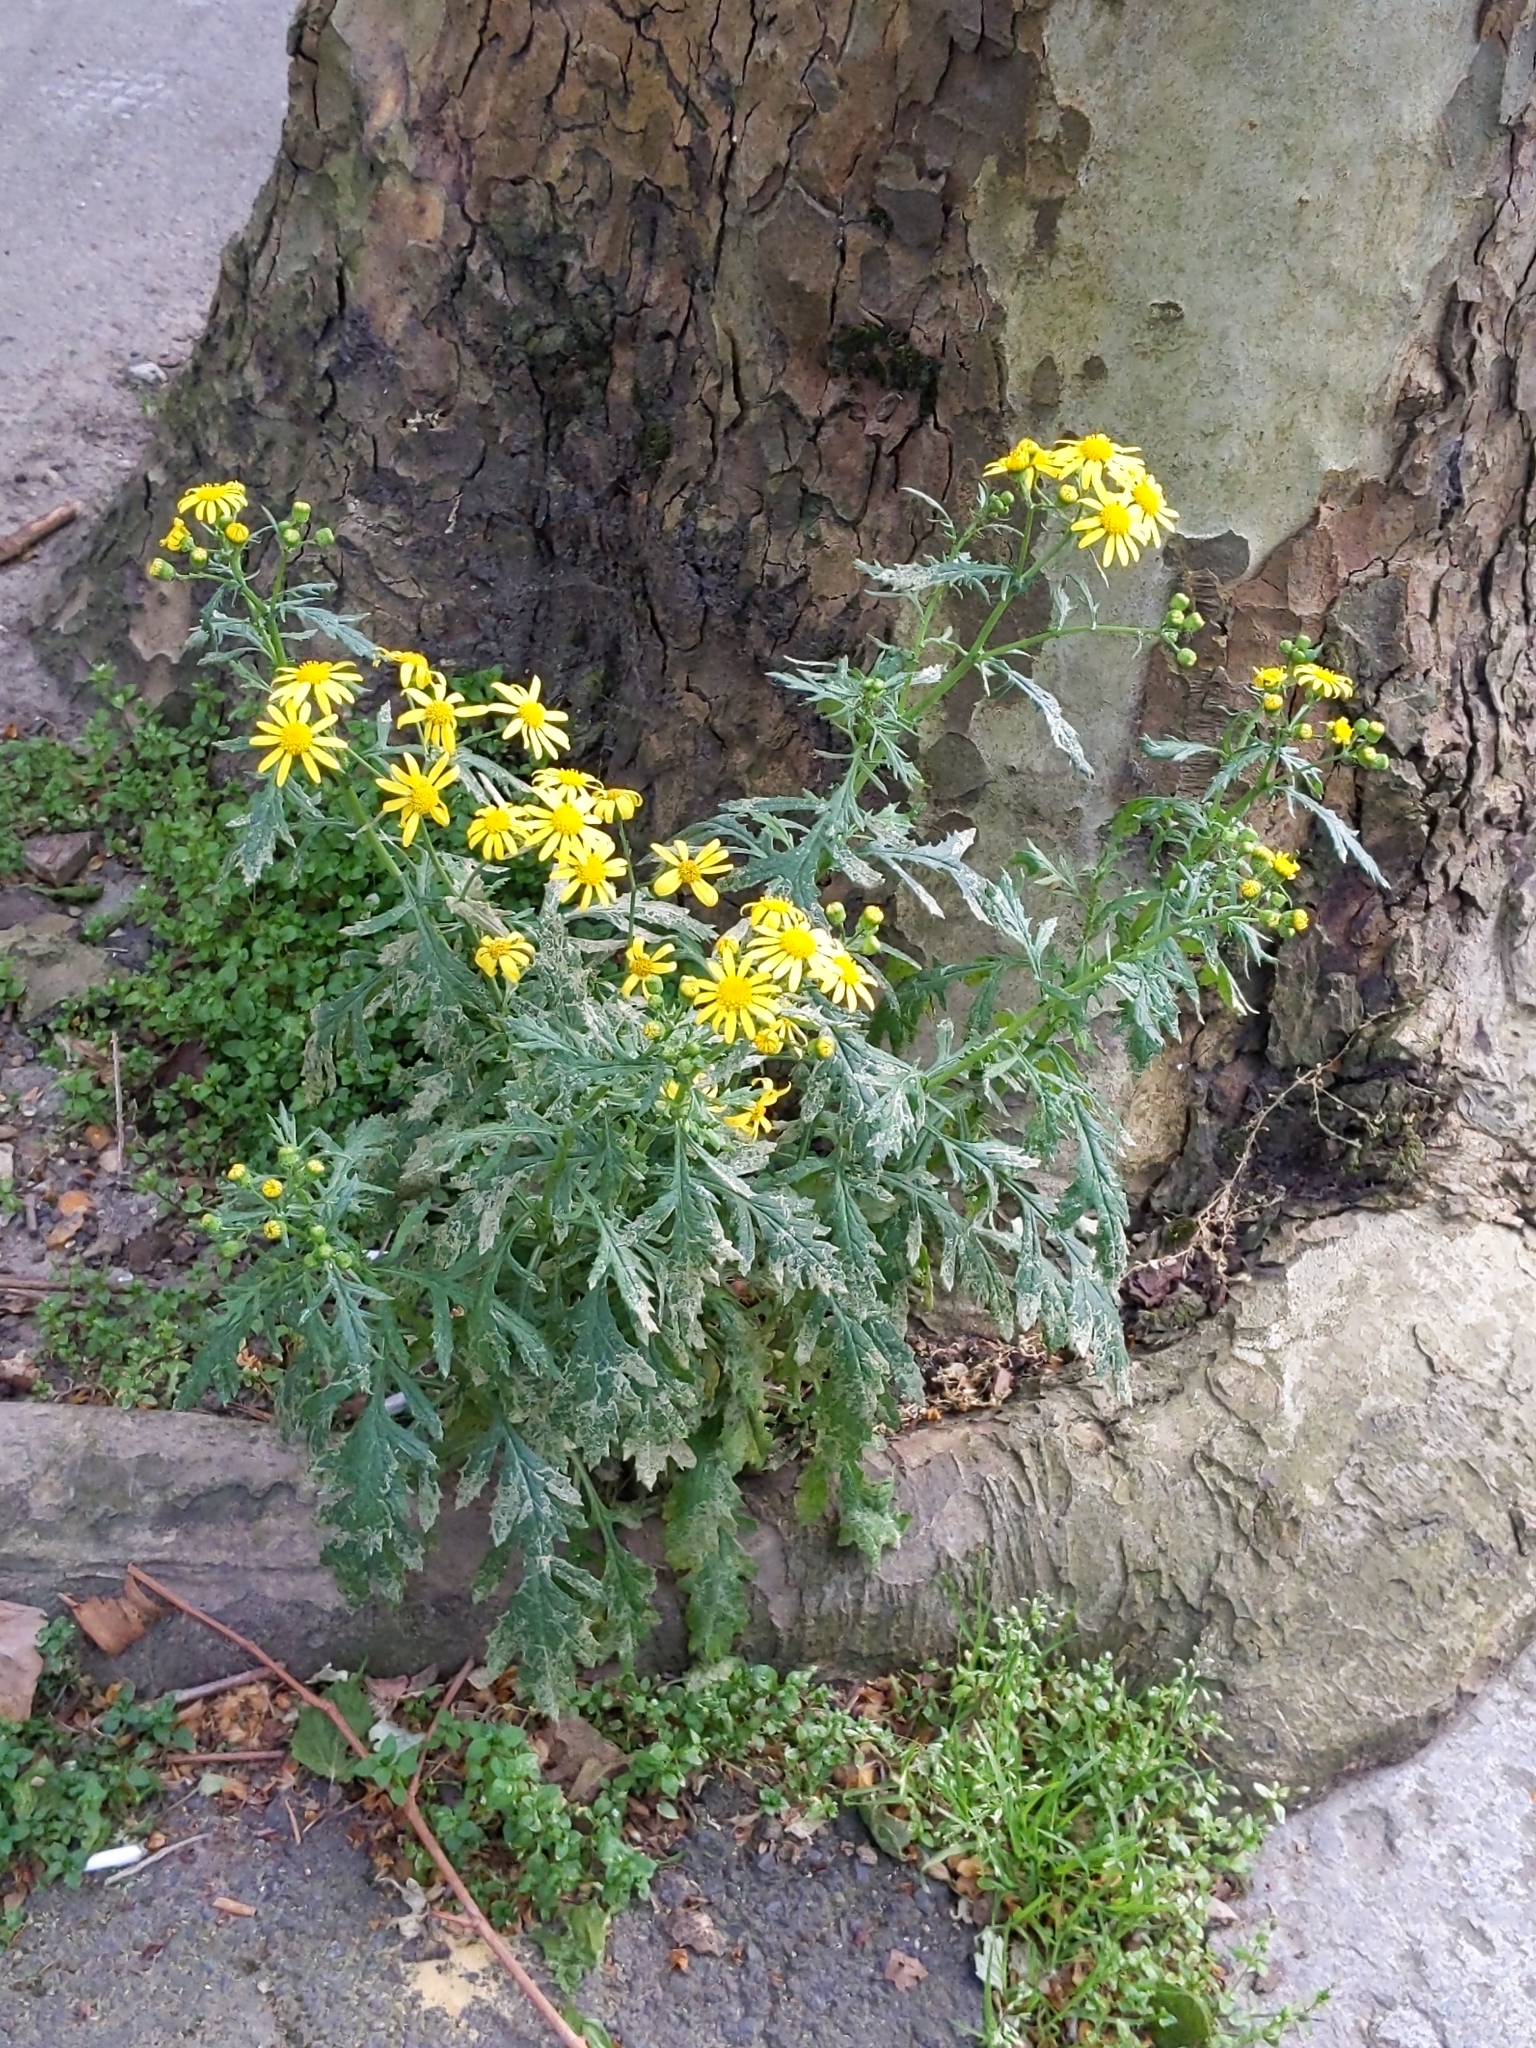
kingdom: Plantae
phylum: Tracheophyta
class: Magnoliopsida
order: Asterales
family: Asteraceae
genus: Senecio
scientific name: Senecio squalidus
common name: Oxford ragwort
